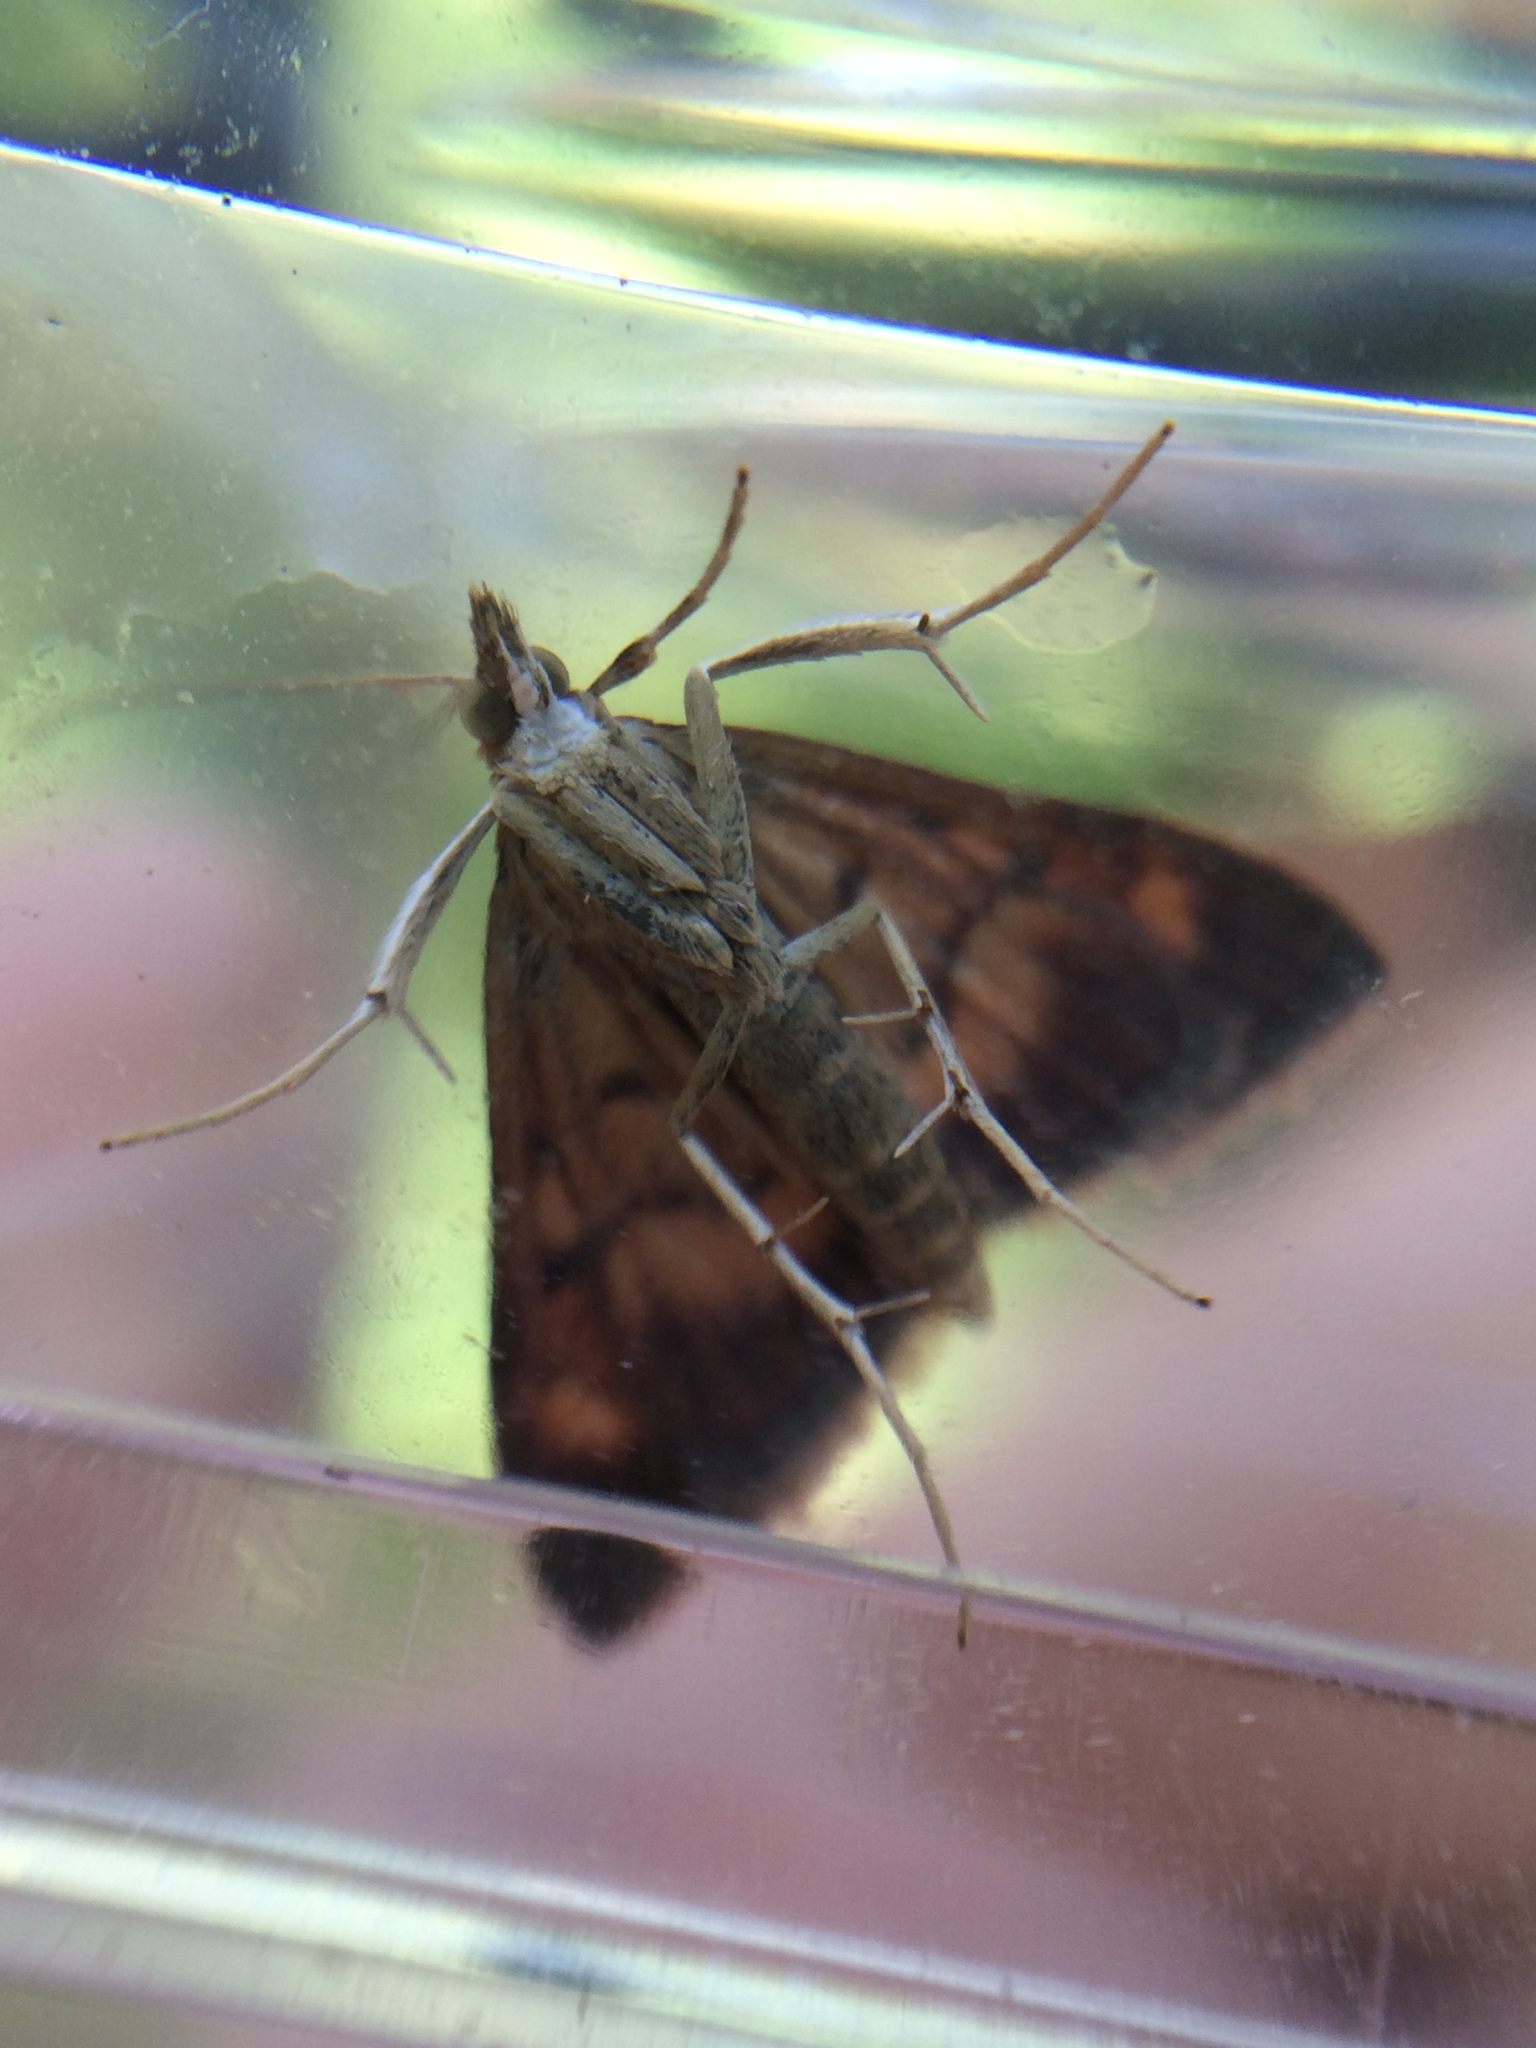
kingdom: Animalia
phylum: Arthropoda
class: Insecta
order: Lepidoptera
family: Crambidae
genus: Pyrausta
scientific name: Pyrausta californicalis
